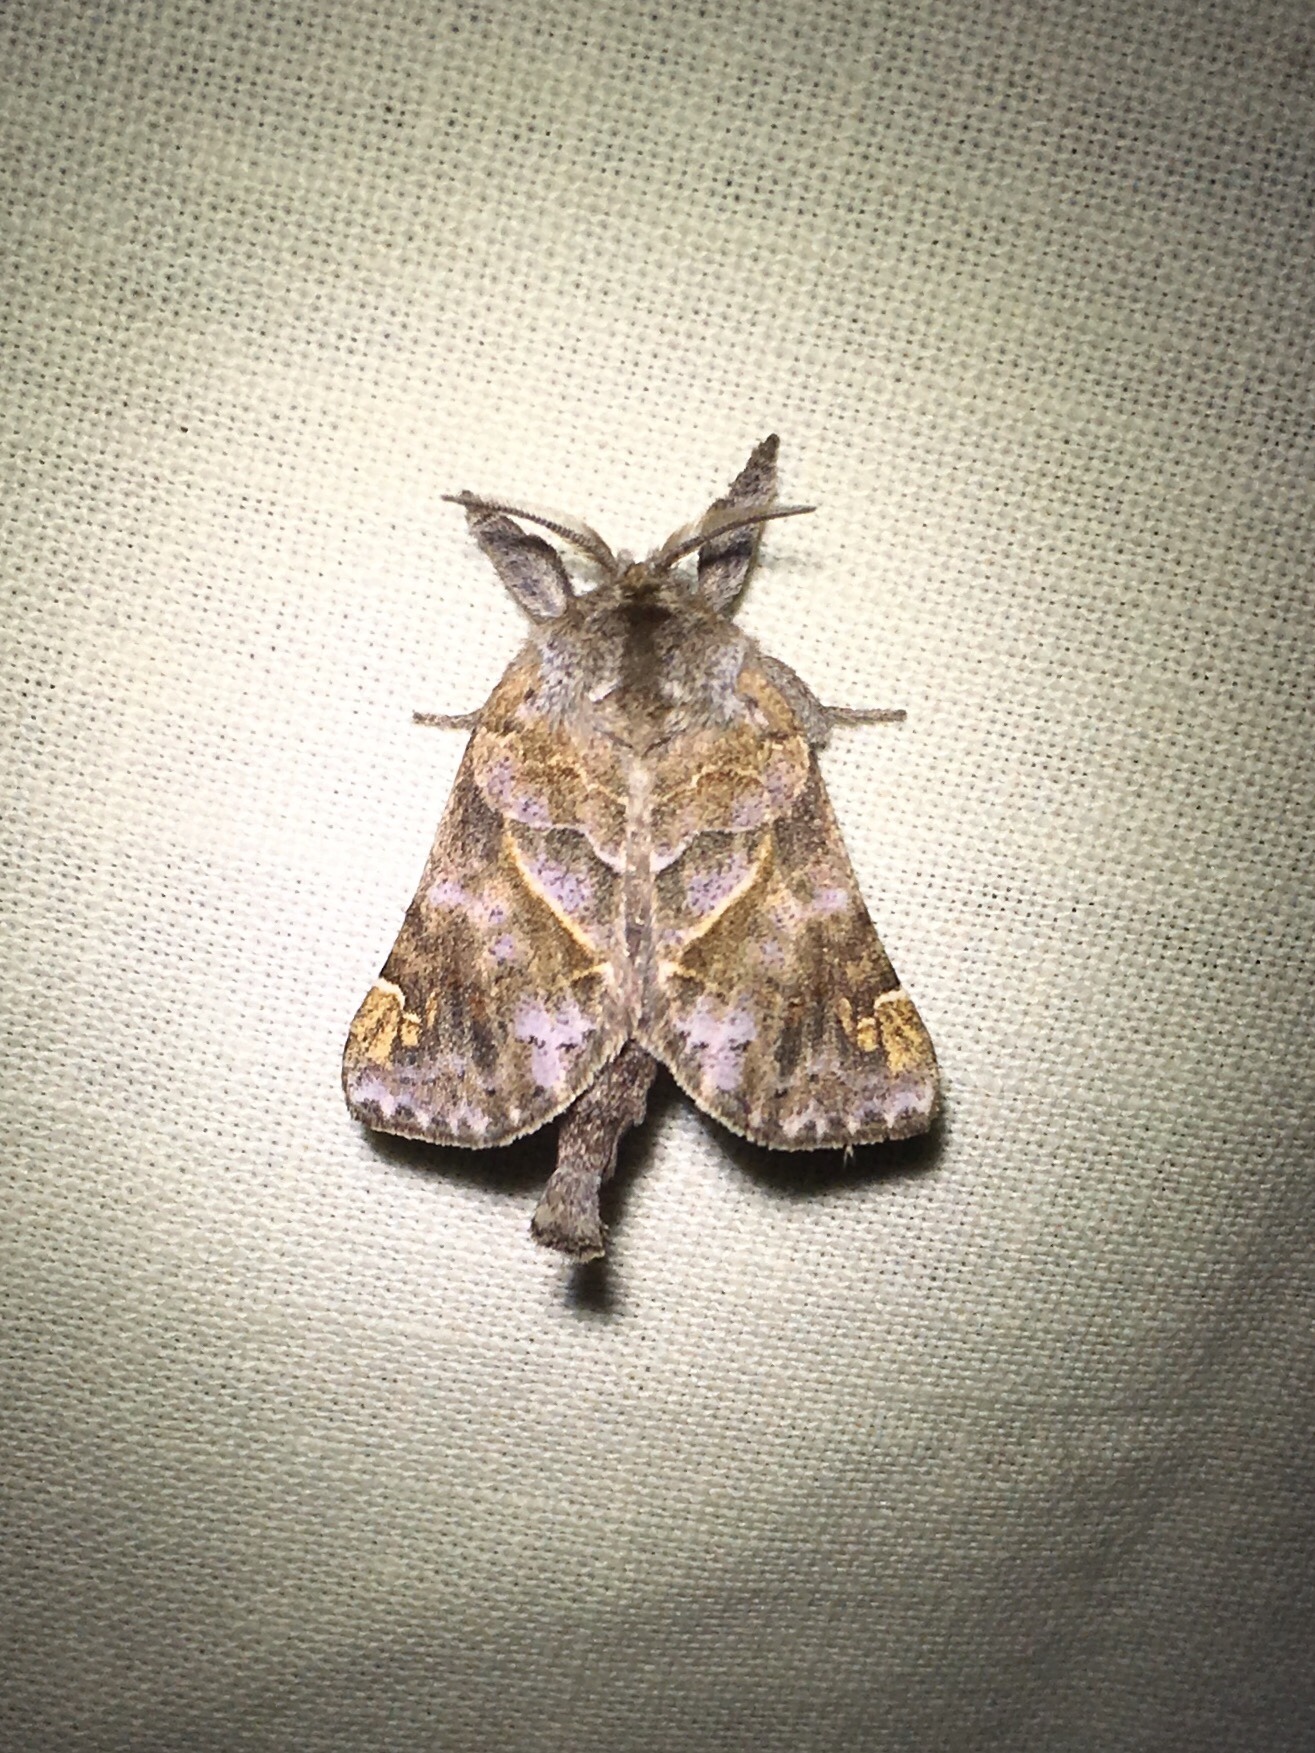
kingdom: Animalia
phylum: Arthropoda
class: Insecta
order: Lepidoptera
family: Notodontidae
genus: Clostera
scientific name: Clostera strigosa
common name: Striped chocolate-tip moth
